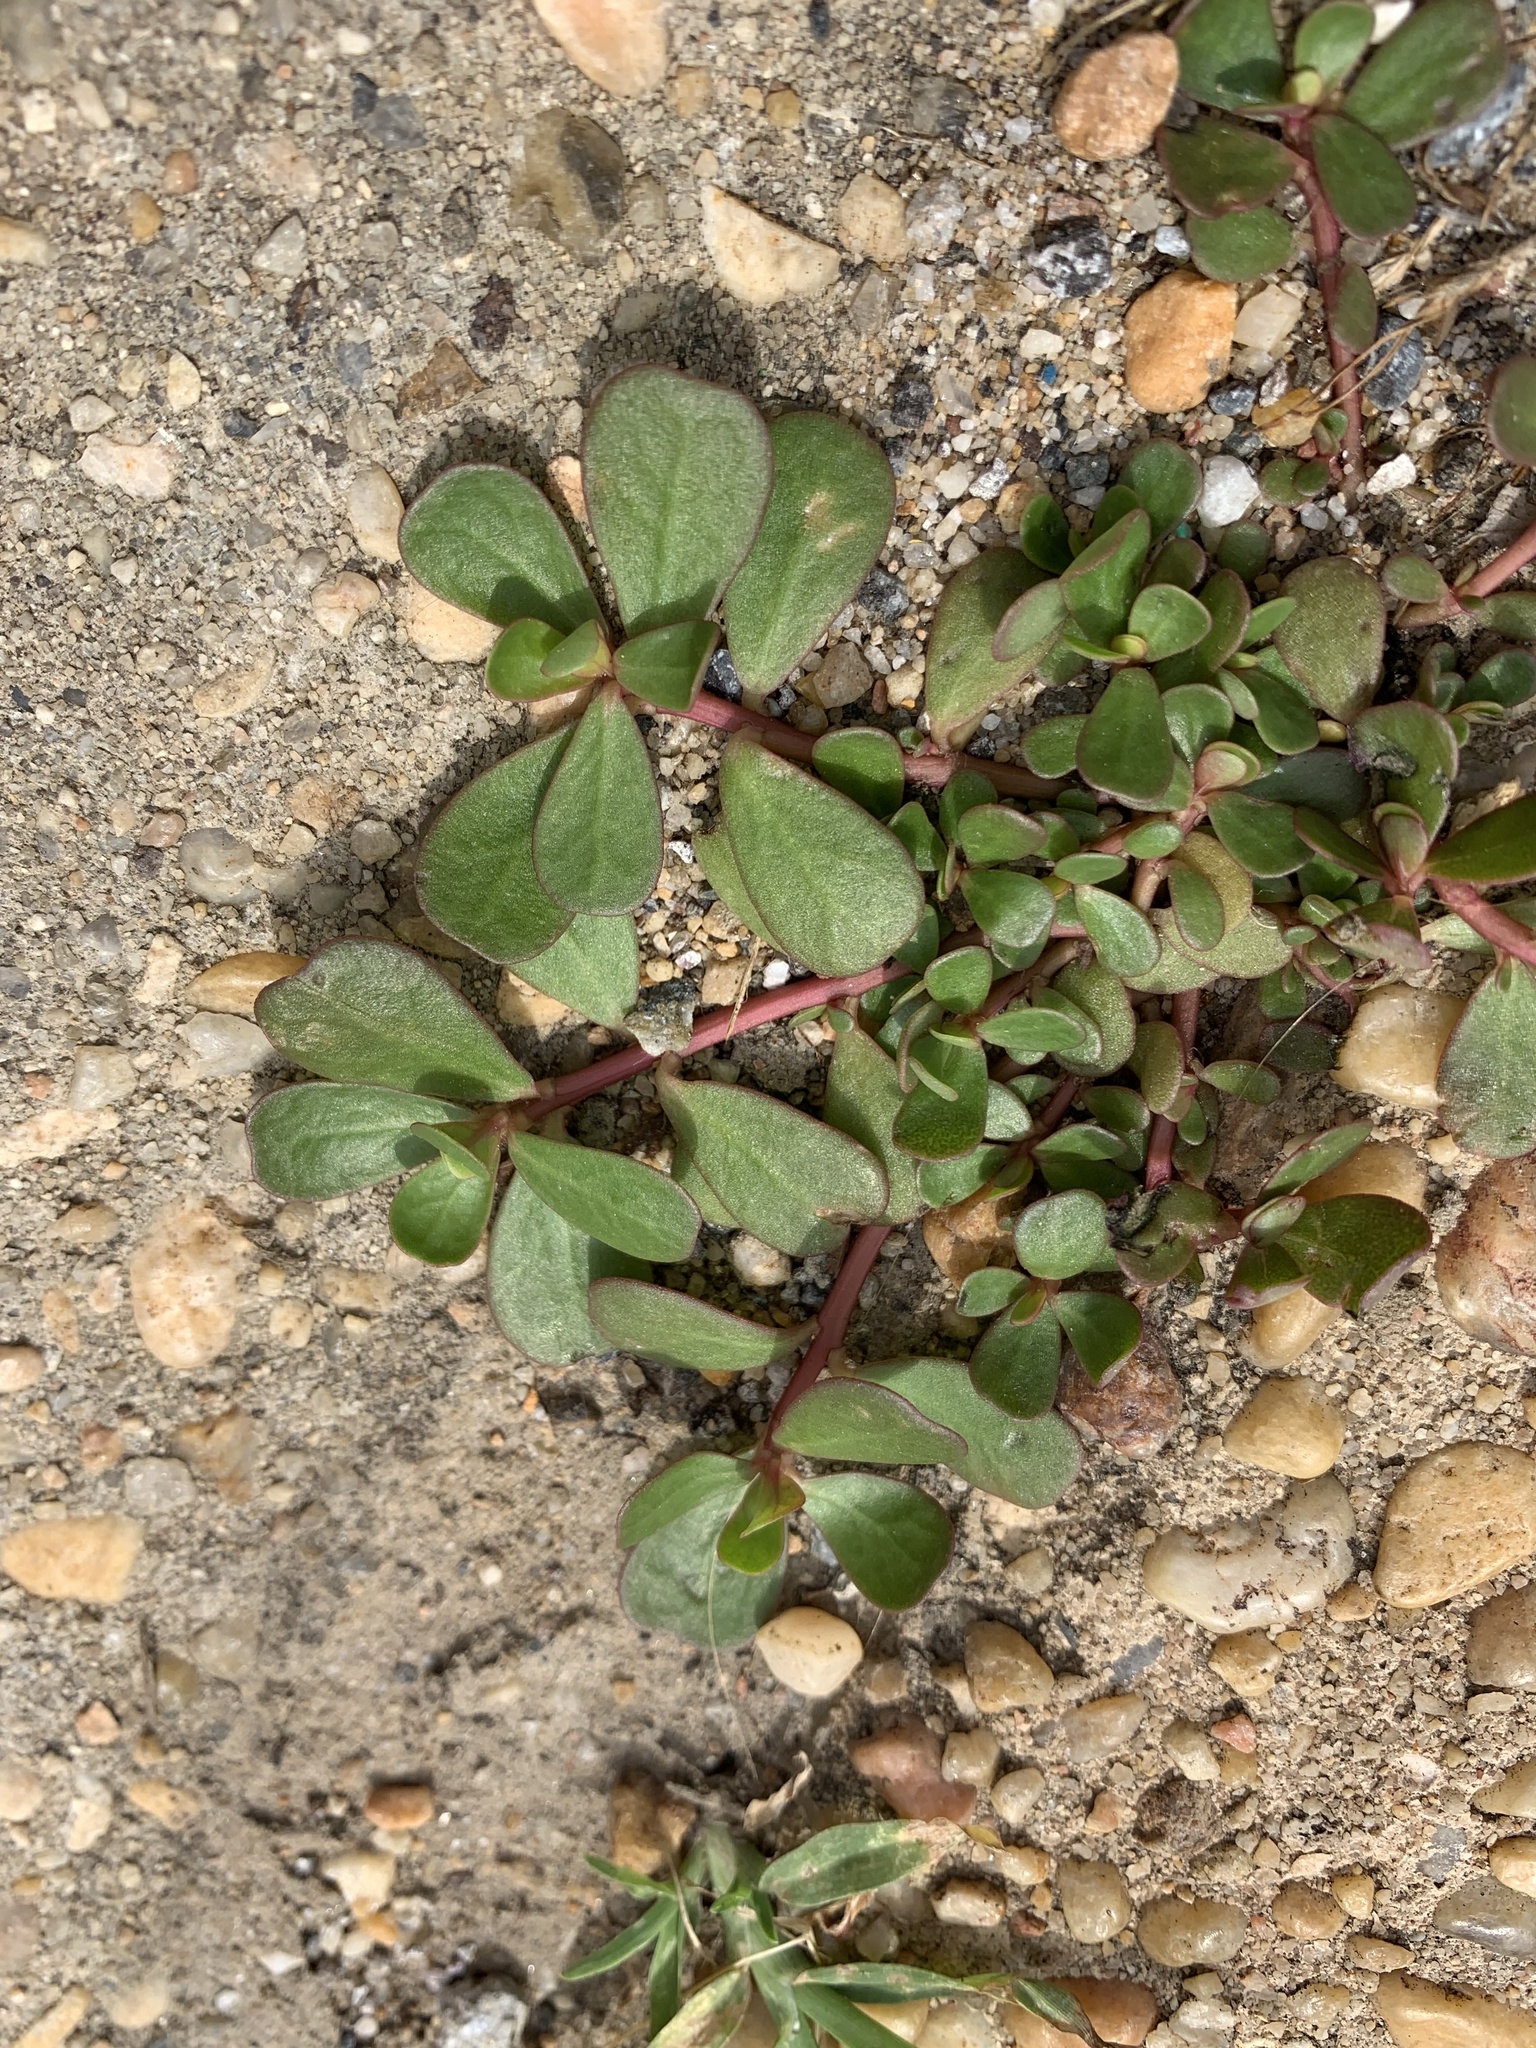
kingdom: Plantae
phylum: Tracheophyta
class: Magnoliopsida
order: Caryophyllales
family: Portulacaceae
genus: Portulaca
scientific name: Portulaca oleracea
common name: Common purslane
